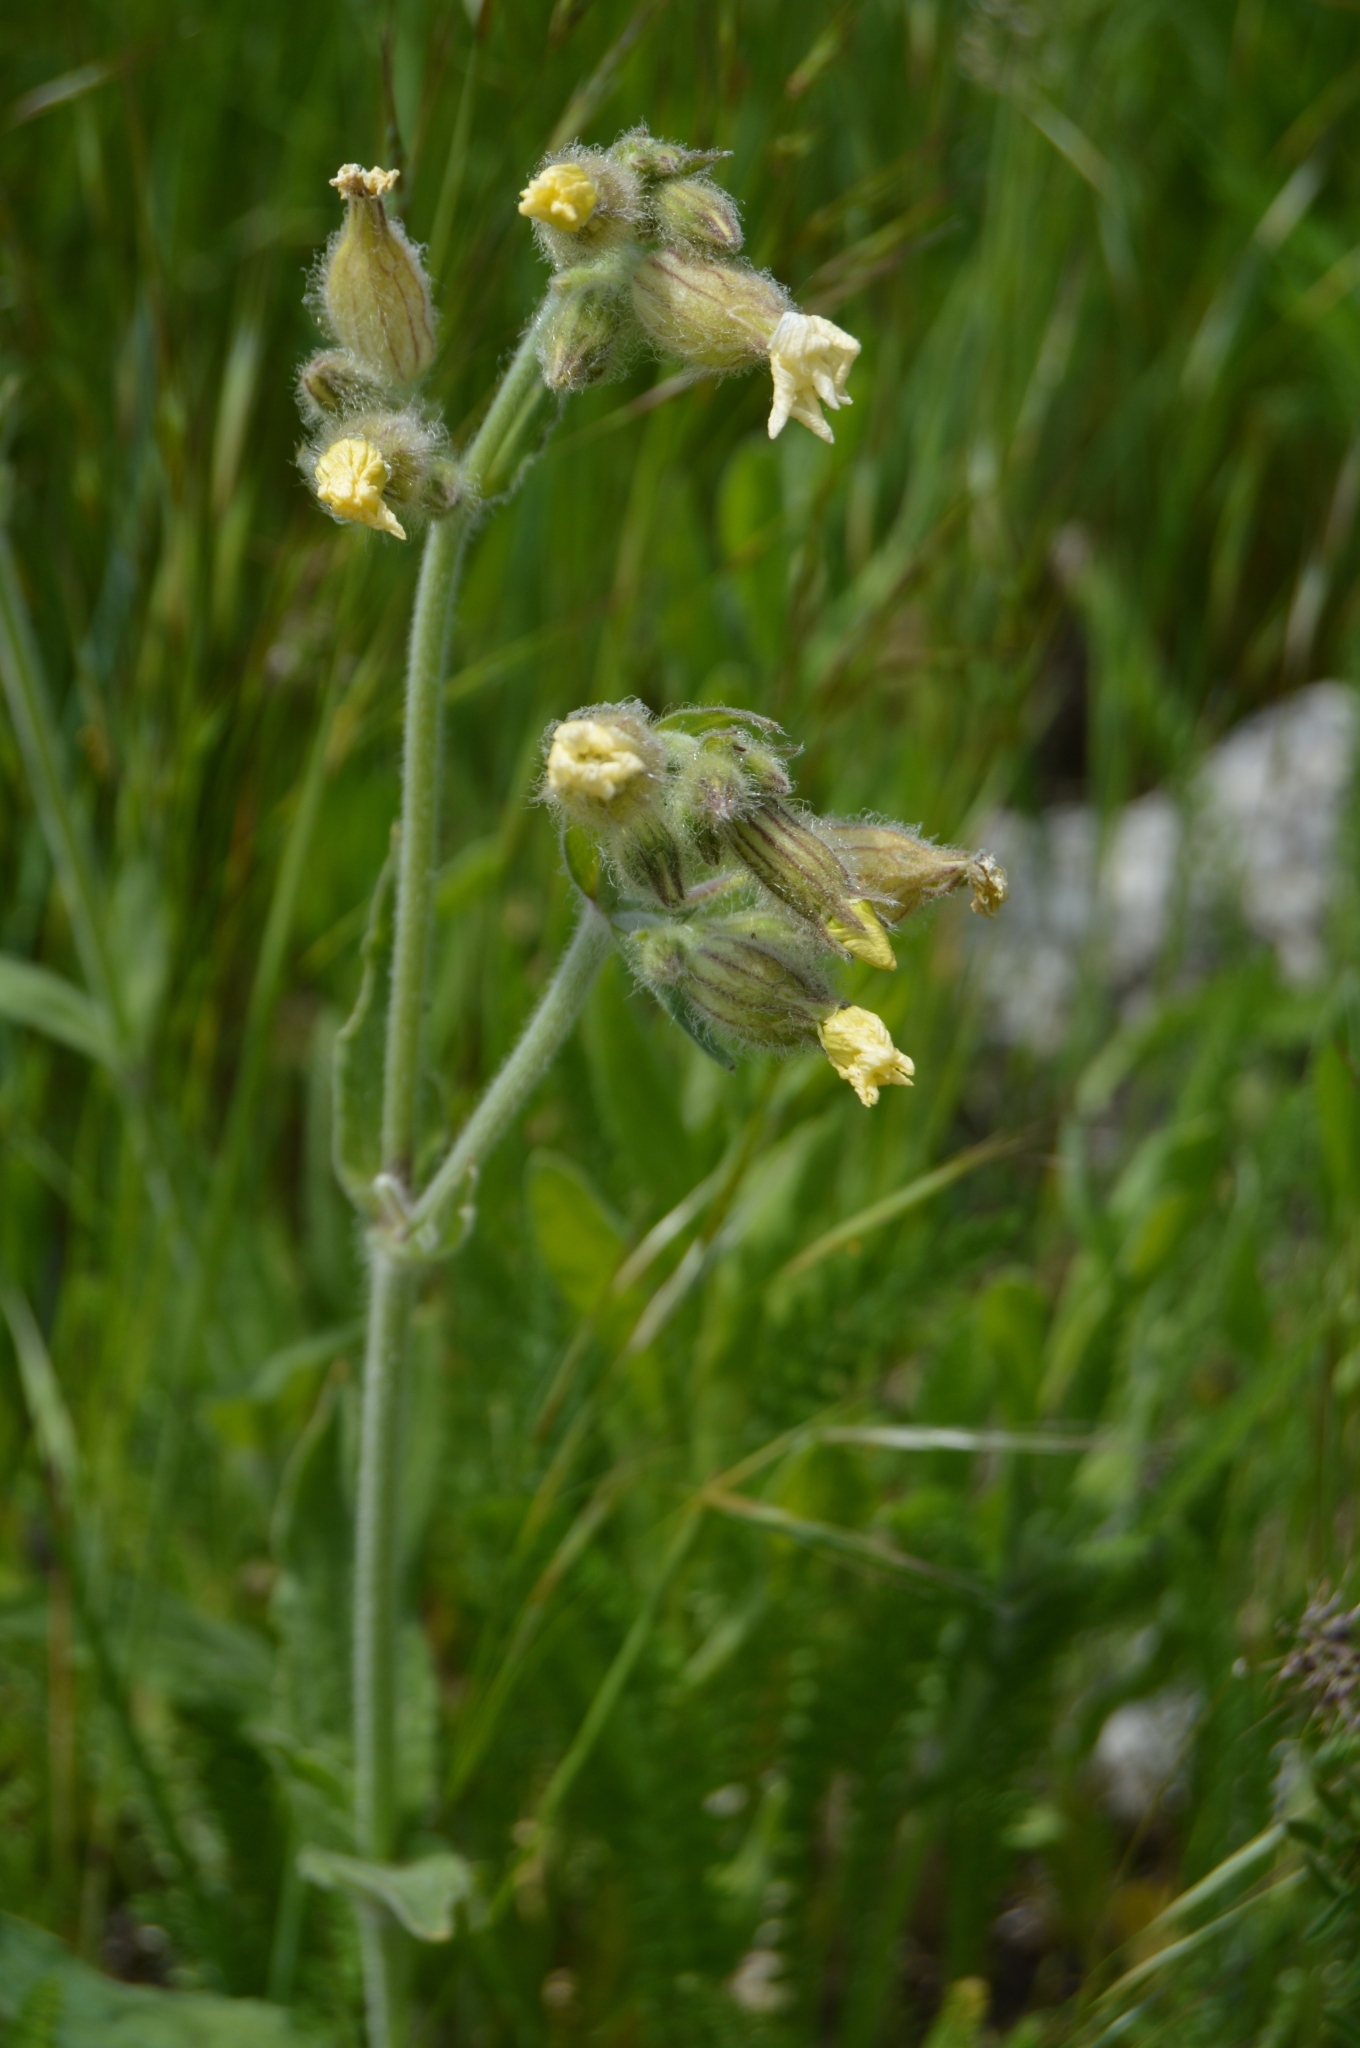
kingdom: Plantae
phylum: Tracheophyta
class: Magnoliopsida
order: Caryophyllales
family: Caryophyllaceae
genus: Silene
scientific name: Silene latifolia
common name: White campion
